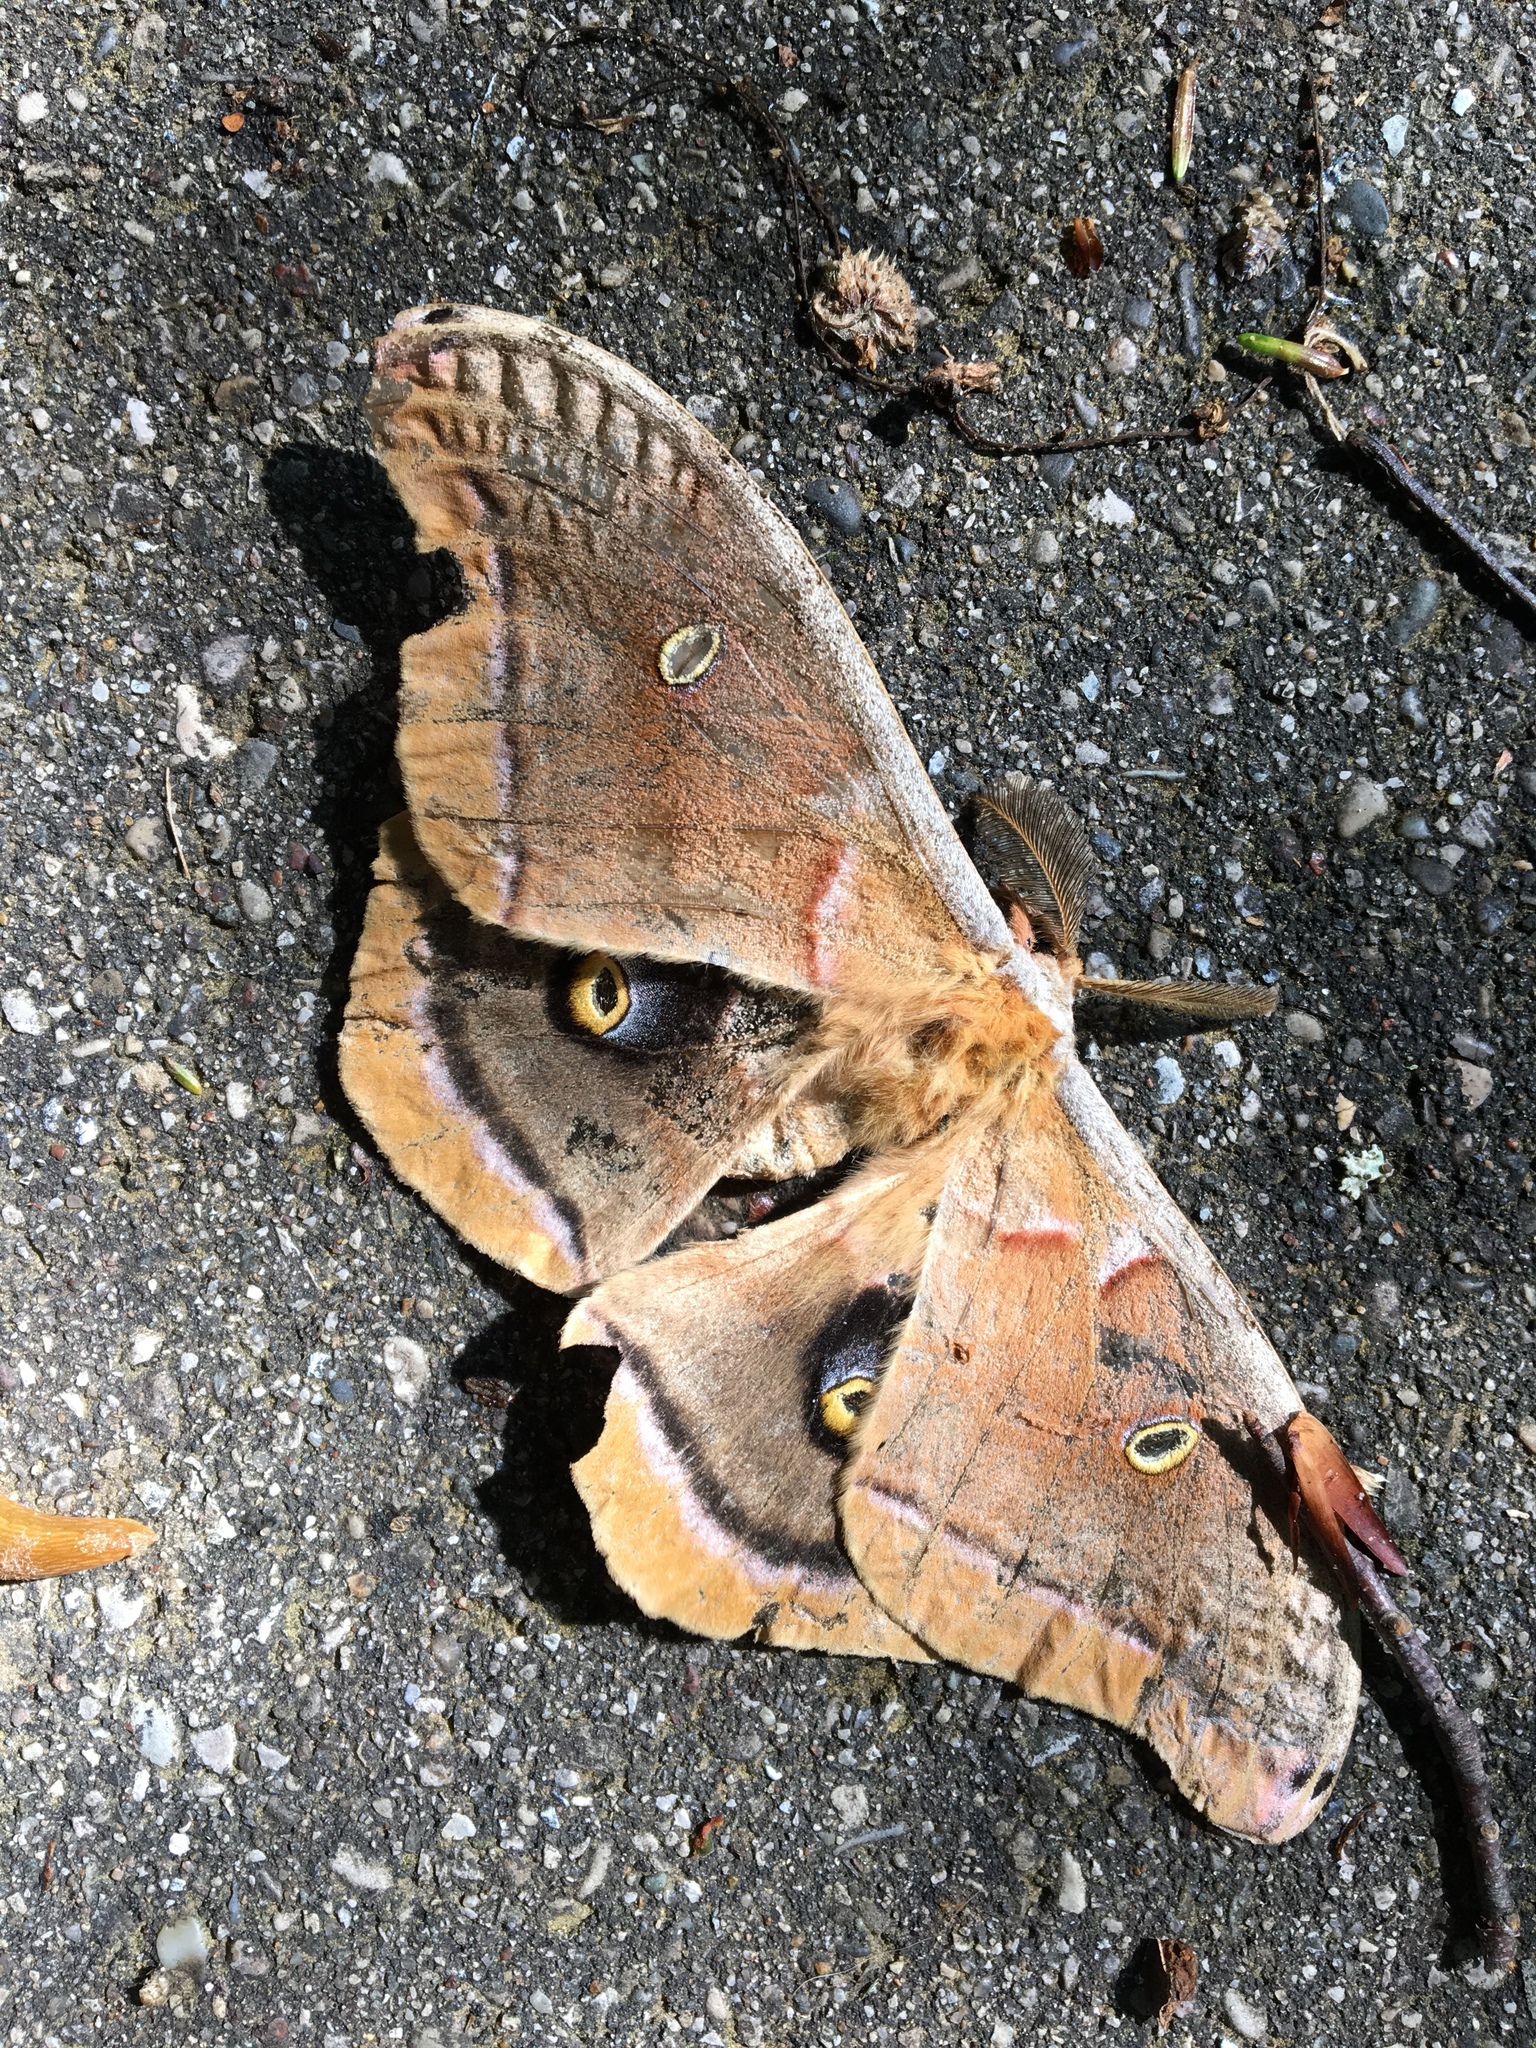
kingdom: Animalia
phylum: Arthropoda
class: Insecta
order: Lepidoptera
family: Saturniidae
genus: Antheraea
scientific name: Antheraea polyphemus
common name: Polyphemus moth
